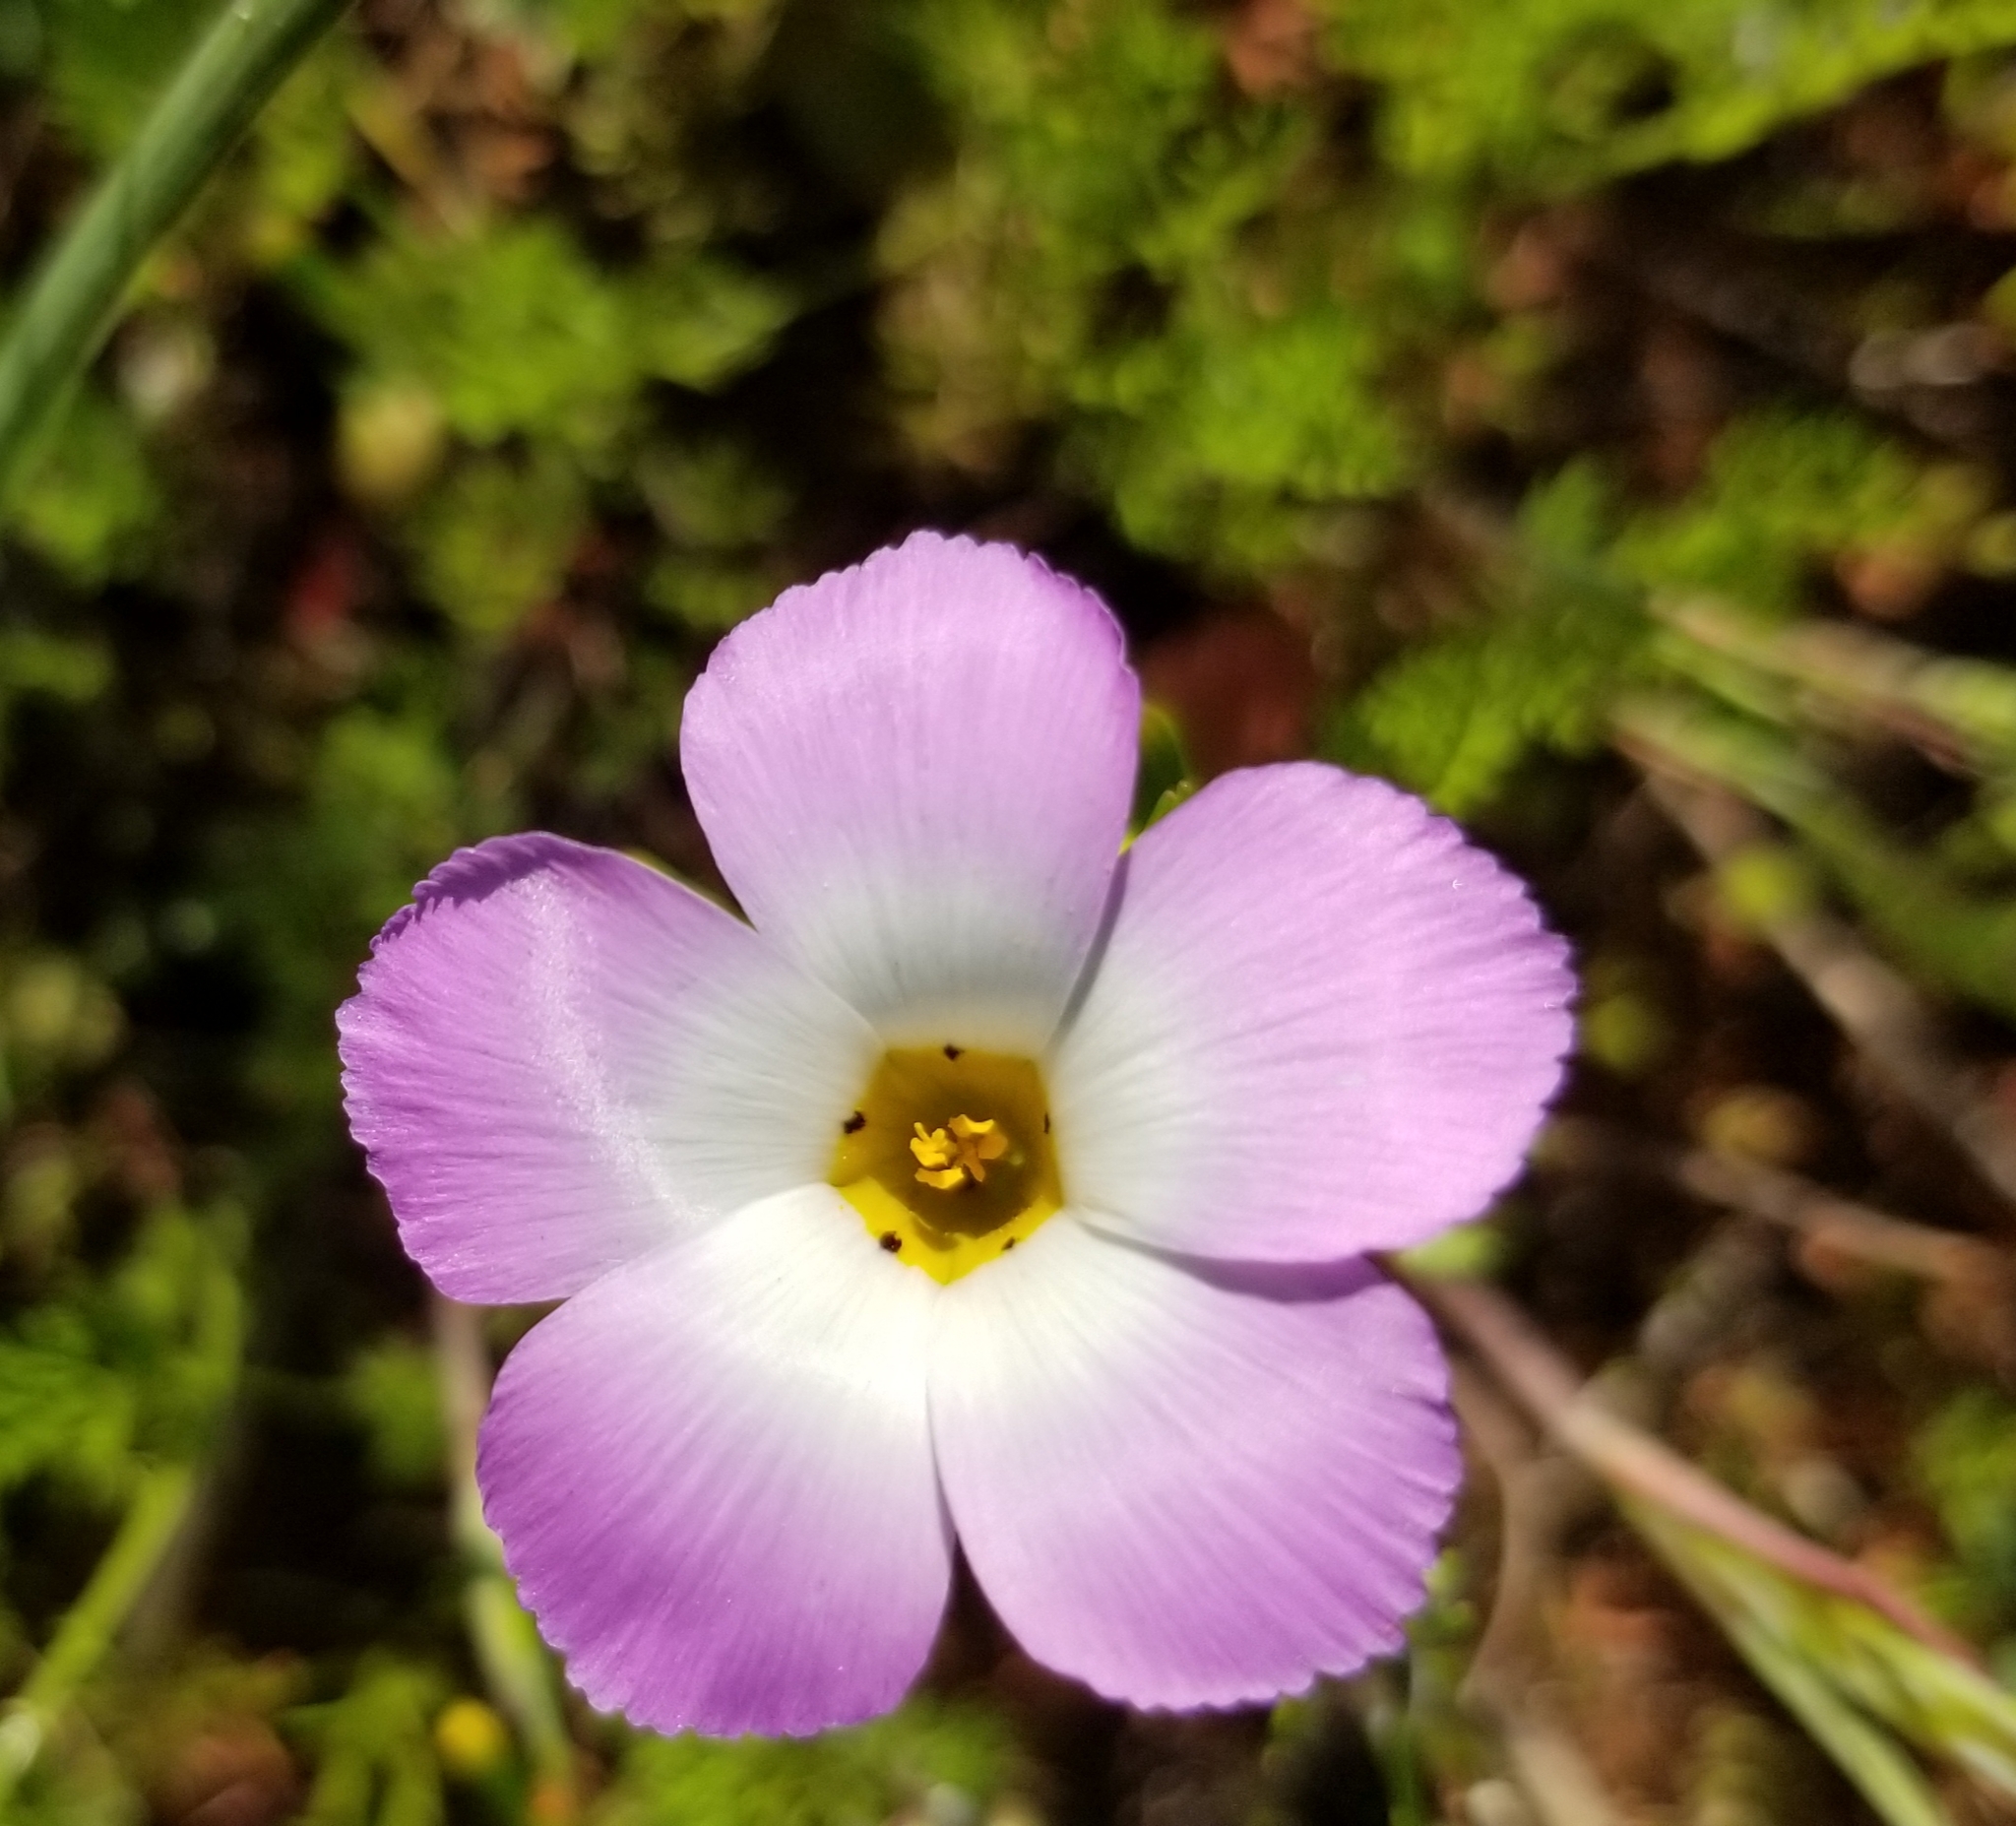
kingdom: Plantae
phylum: Tracheophyta
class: Magnoliopsida
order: Ericales
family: Polemoniaceae
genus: Linanthus
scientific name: Linanthus dianthiflorus
